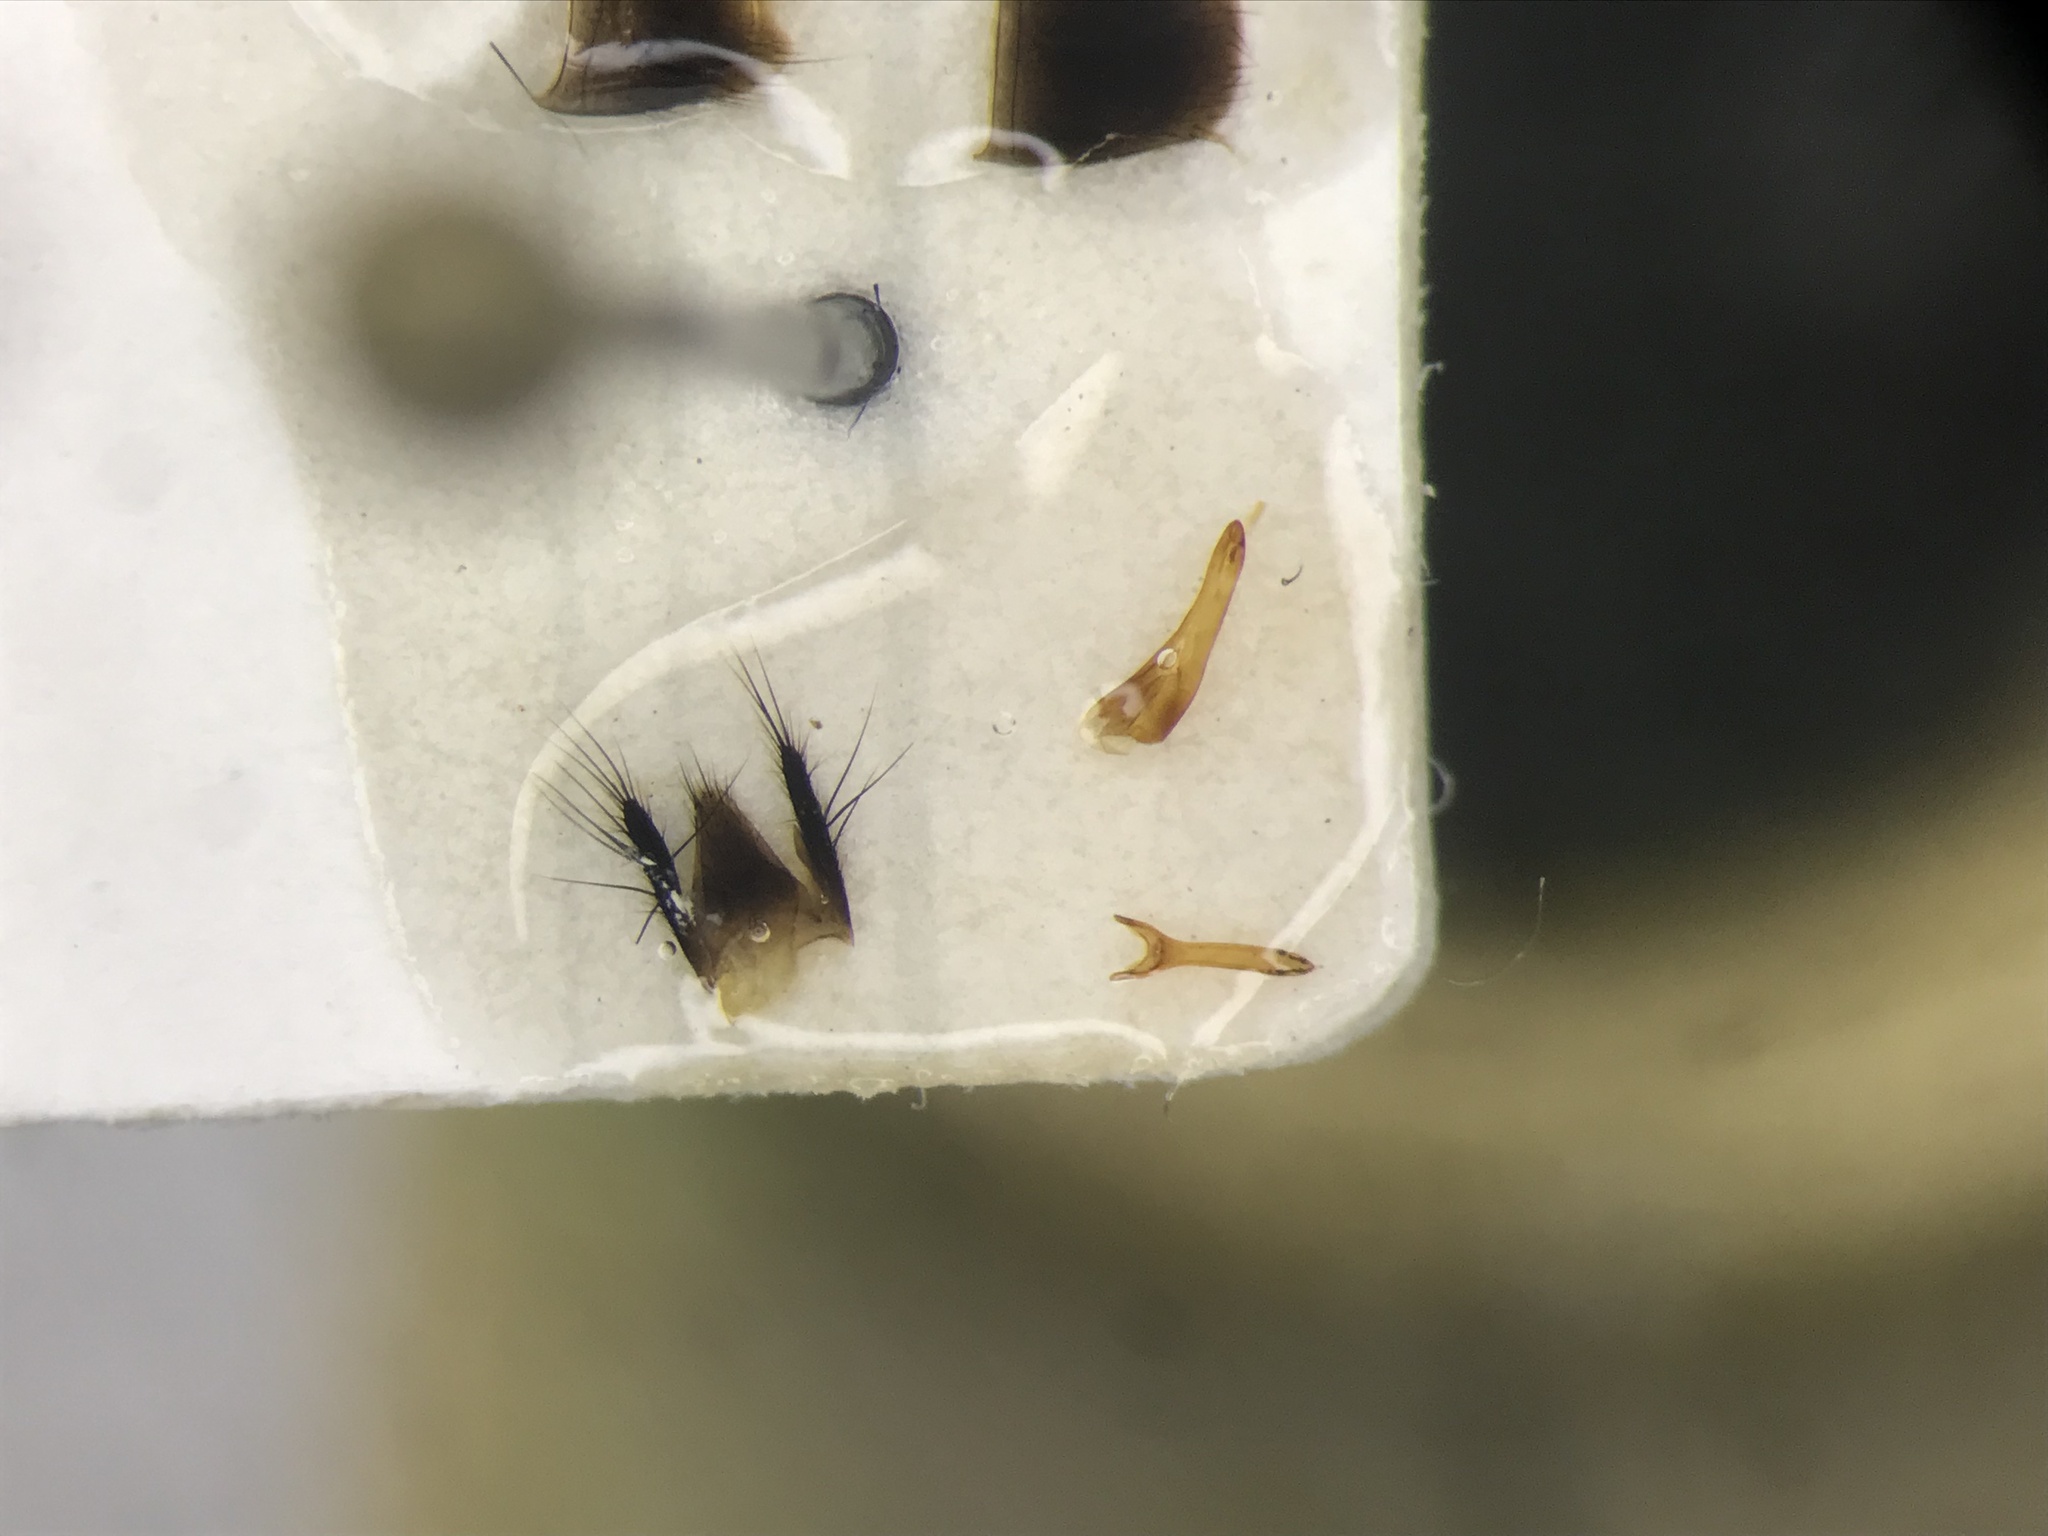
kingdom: Animalia
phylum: Arthropoda
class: Insecta
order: Coleoptera
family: Staphylinidae
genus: Quedius
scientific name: Quedius cinctus
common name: Large rove beetle
